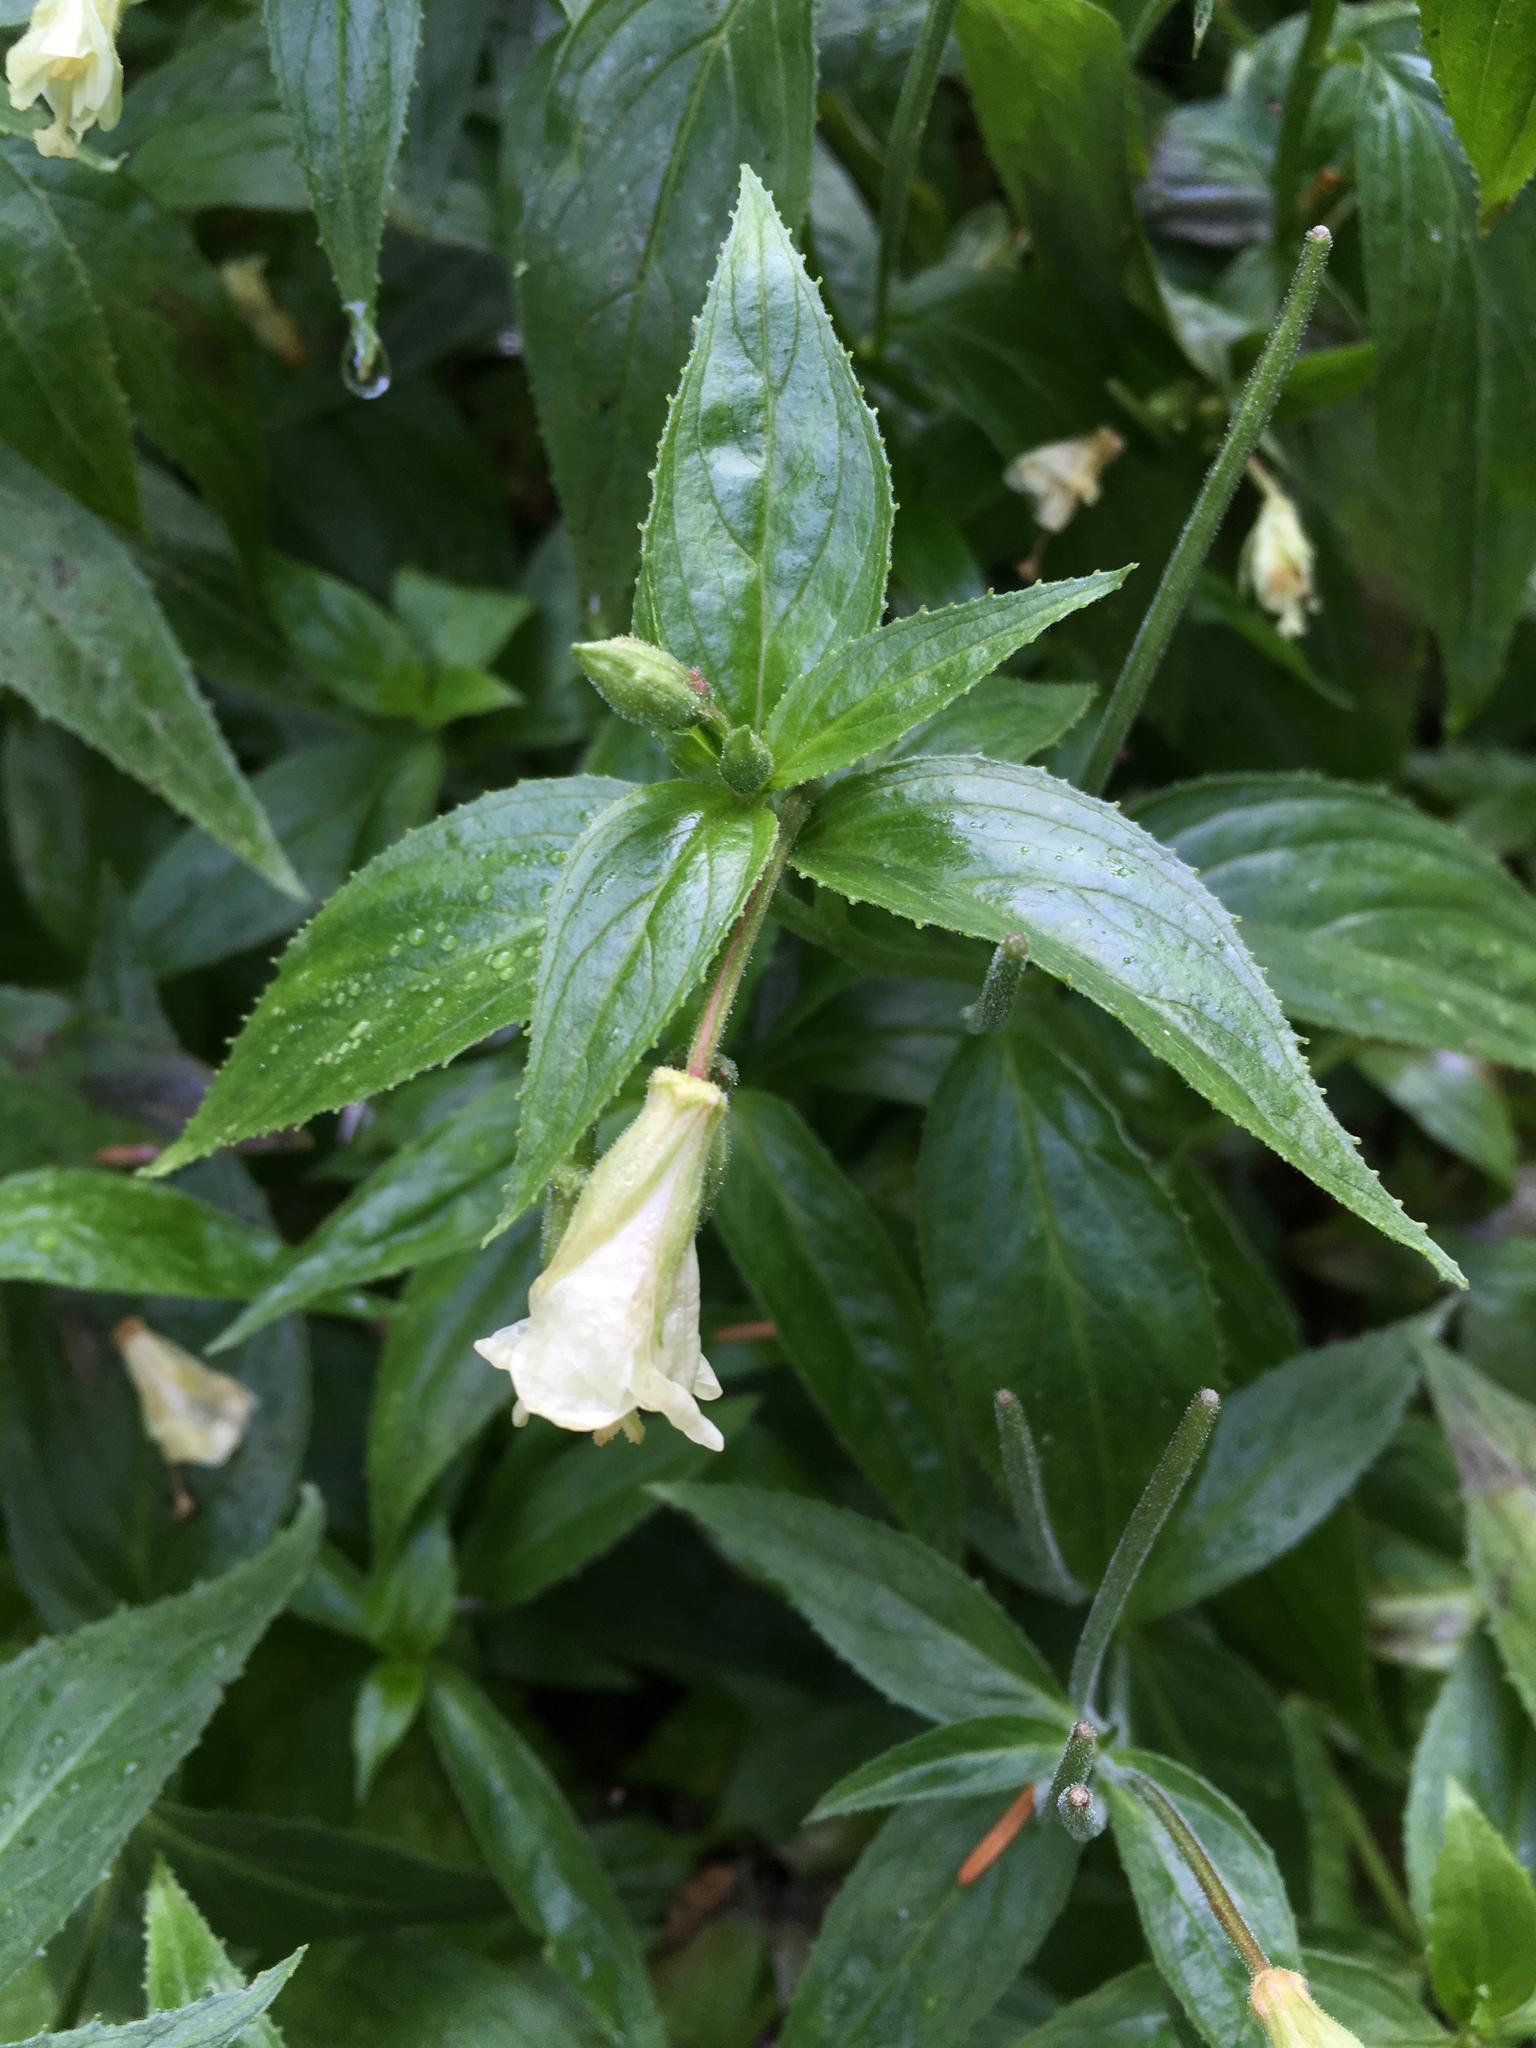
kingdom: Plantae
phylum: Tracheophyta
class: Magnoliopsida
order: Myrtales
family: Onagraceae
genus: Epilobium
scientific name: Epilobium luteum
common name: Yellow willowherb
